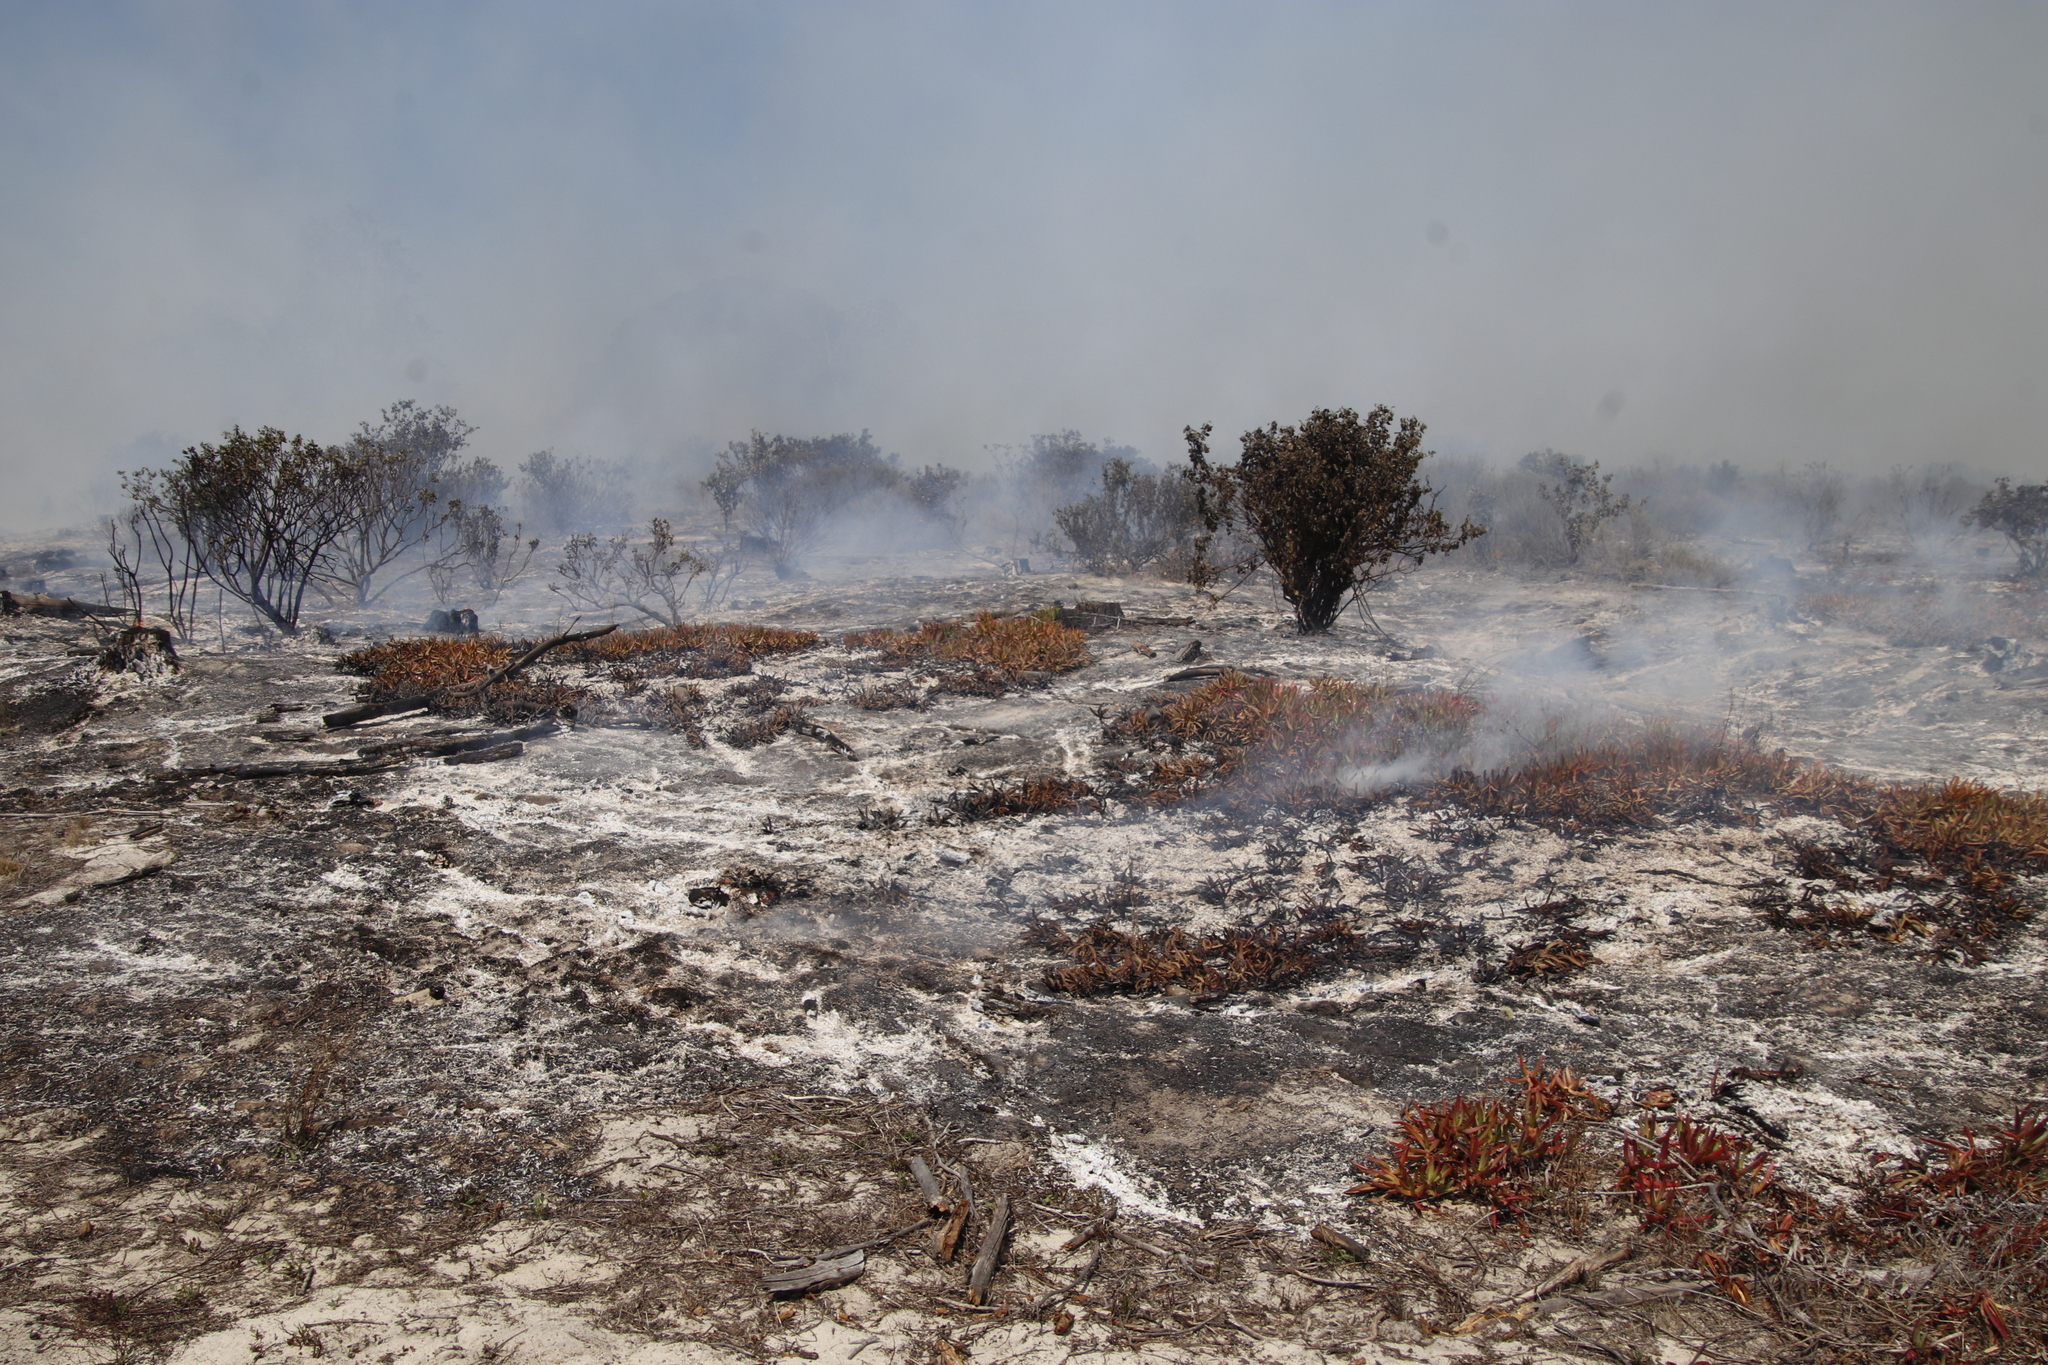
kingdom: Plantae
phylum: Tracheophyta
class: Magnoliopsida
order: Caryophyllales
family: Aizoaceae
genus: Carpobrotus
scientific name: Carpobrotus edulis
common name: Hottentot-fig
